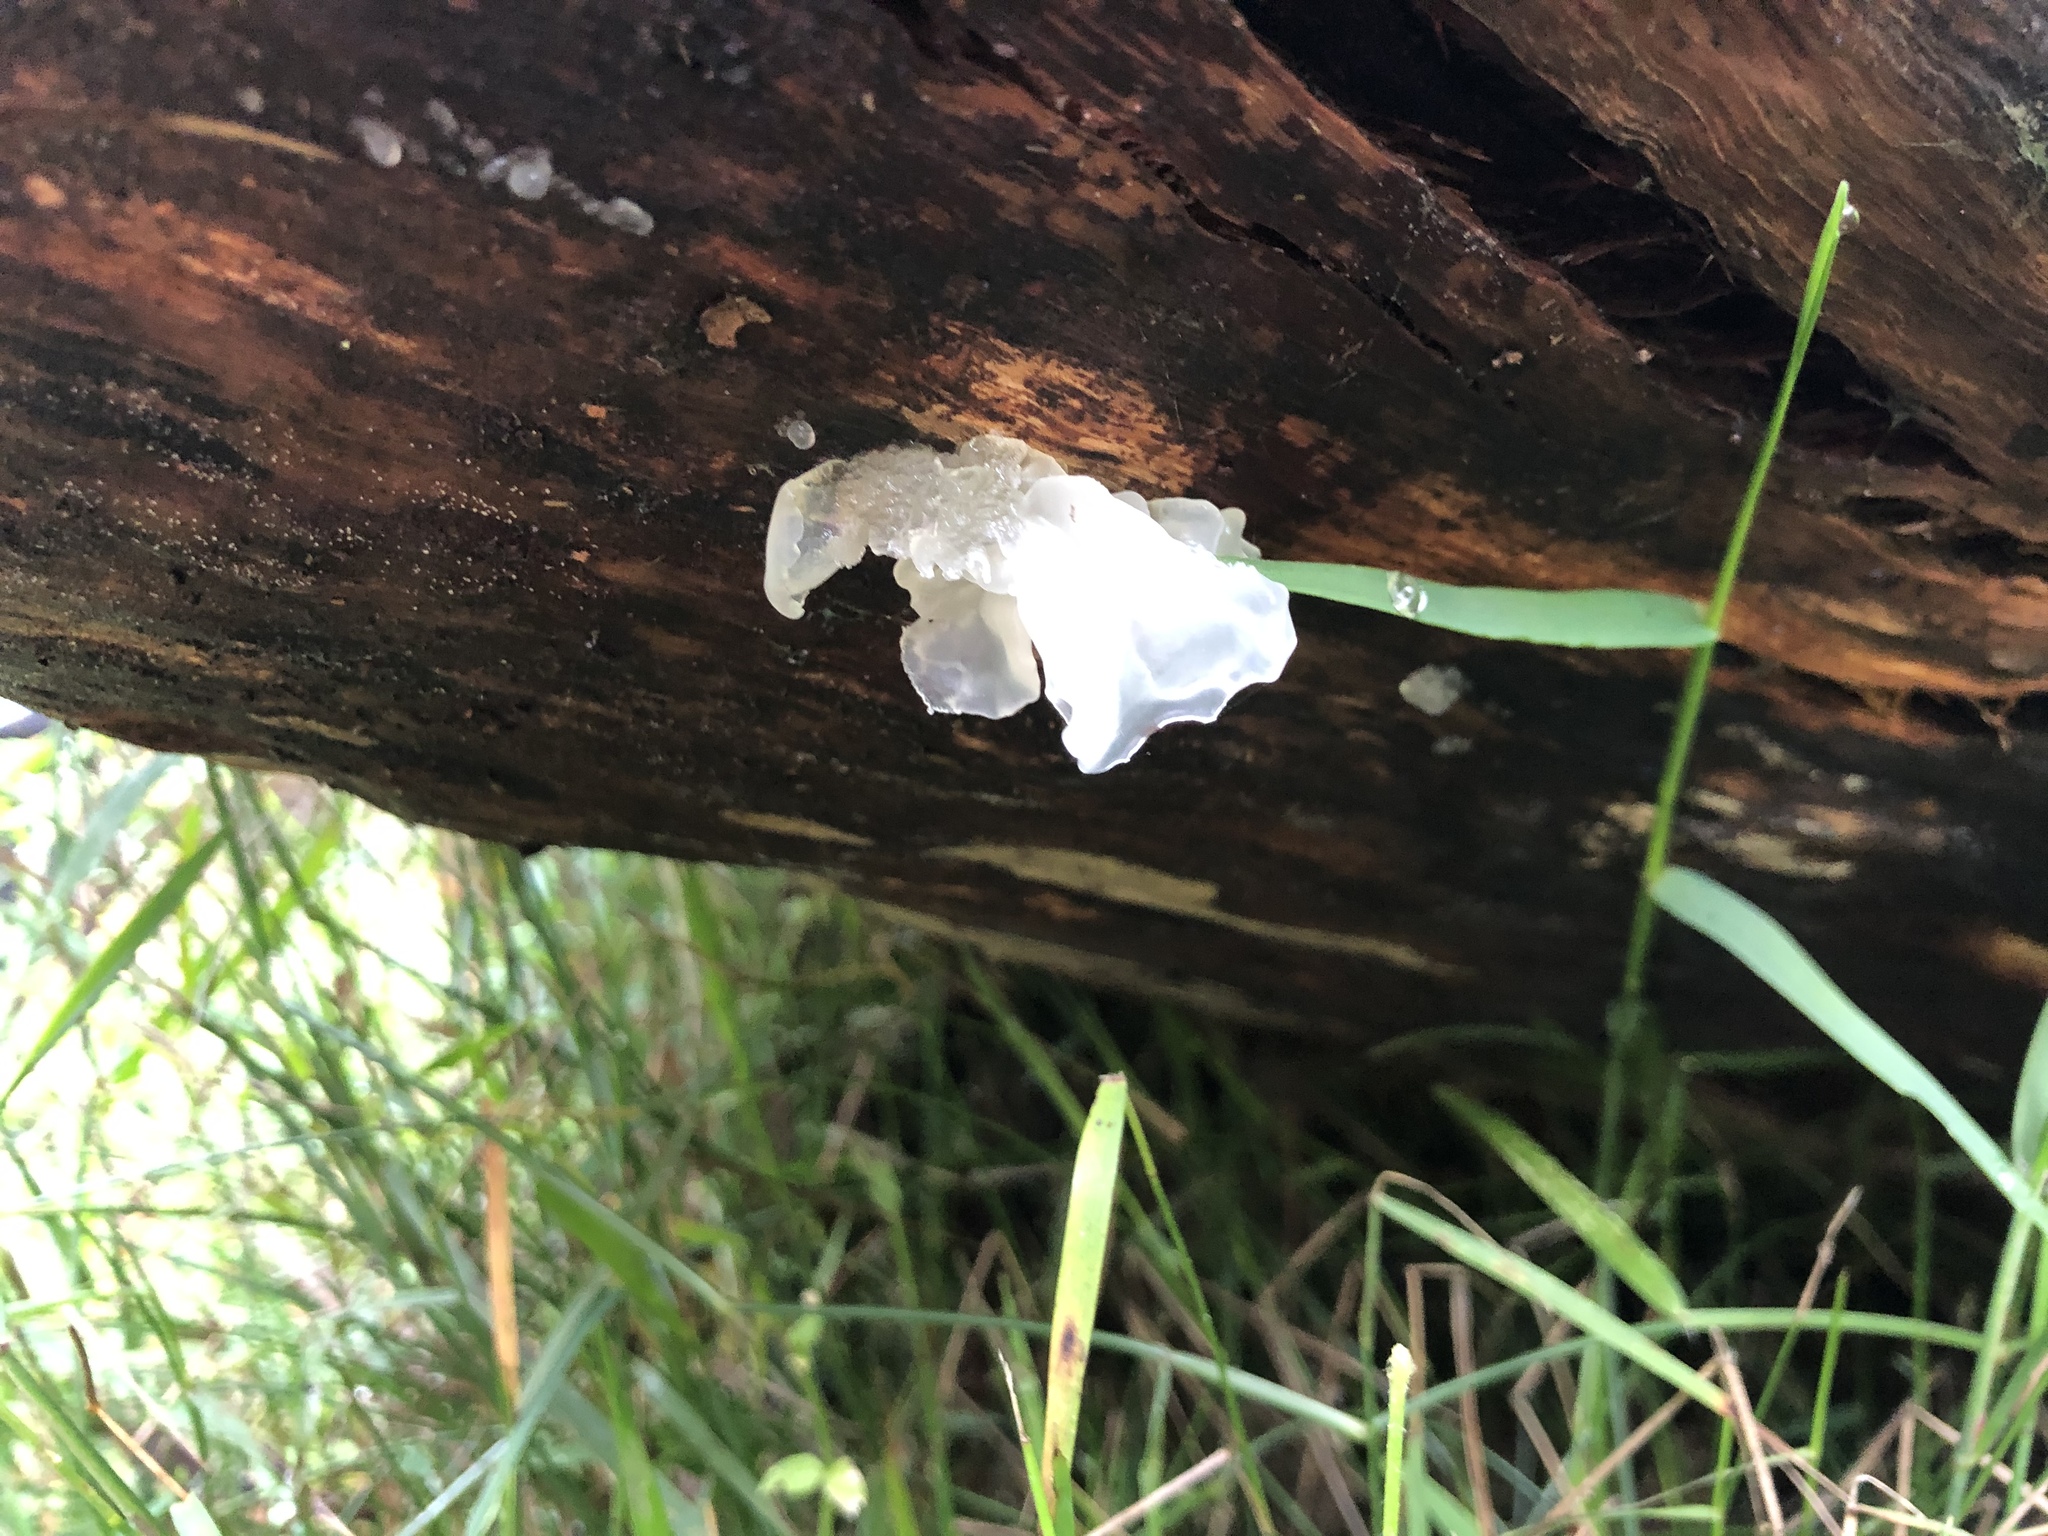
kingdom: Fungi
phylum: Basidiomycota
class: Tremellomycetes
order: Tremellales
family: Tremellaceae
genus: Tremella
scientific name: Tremella fuciformis
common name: Snow fungus
